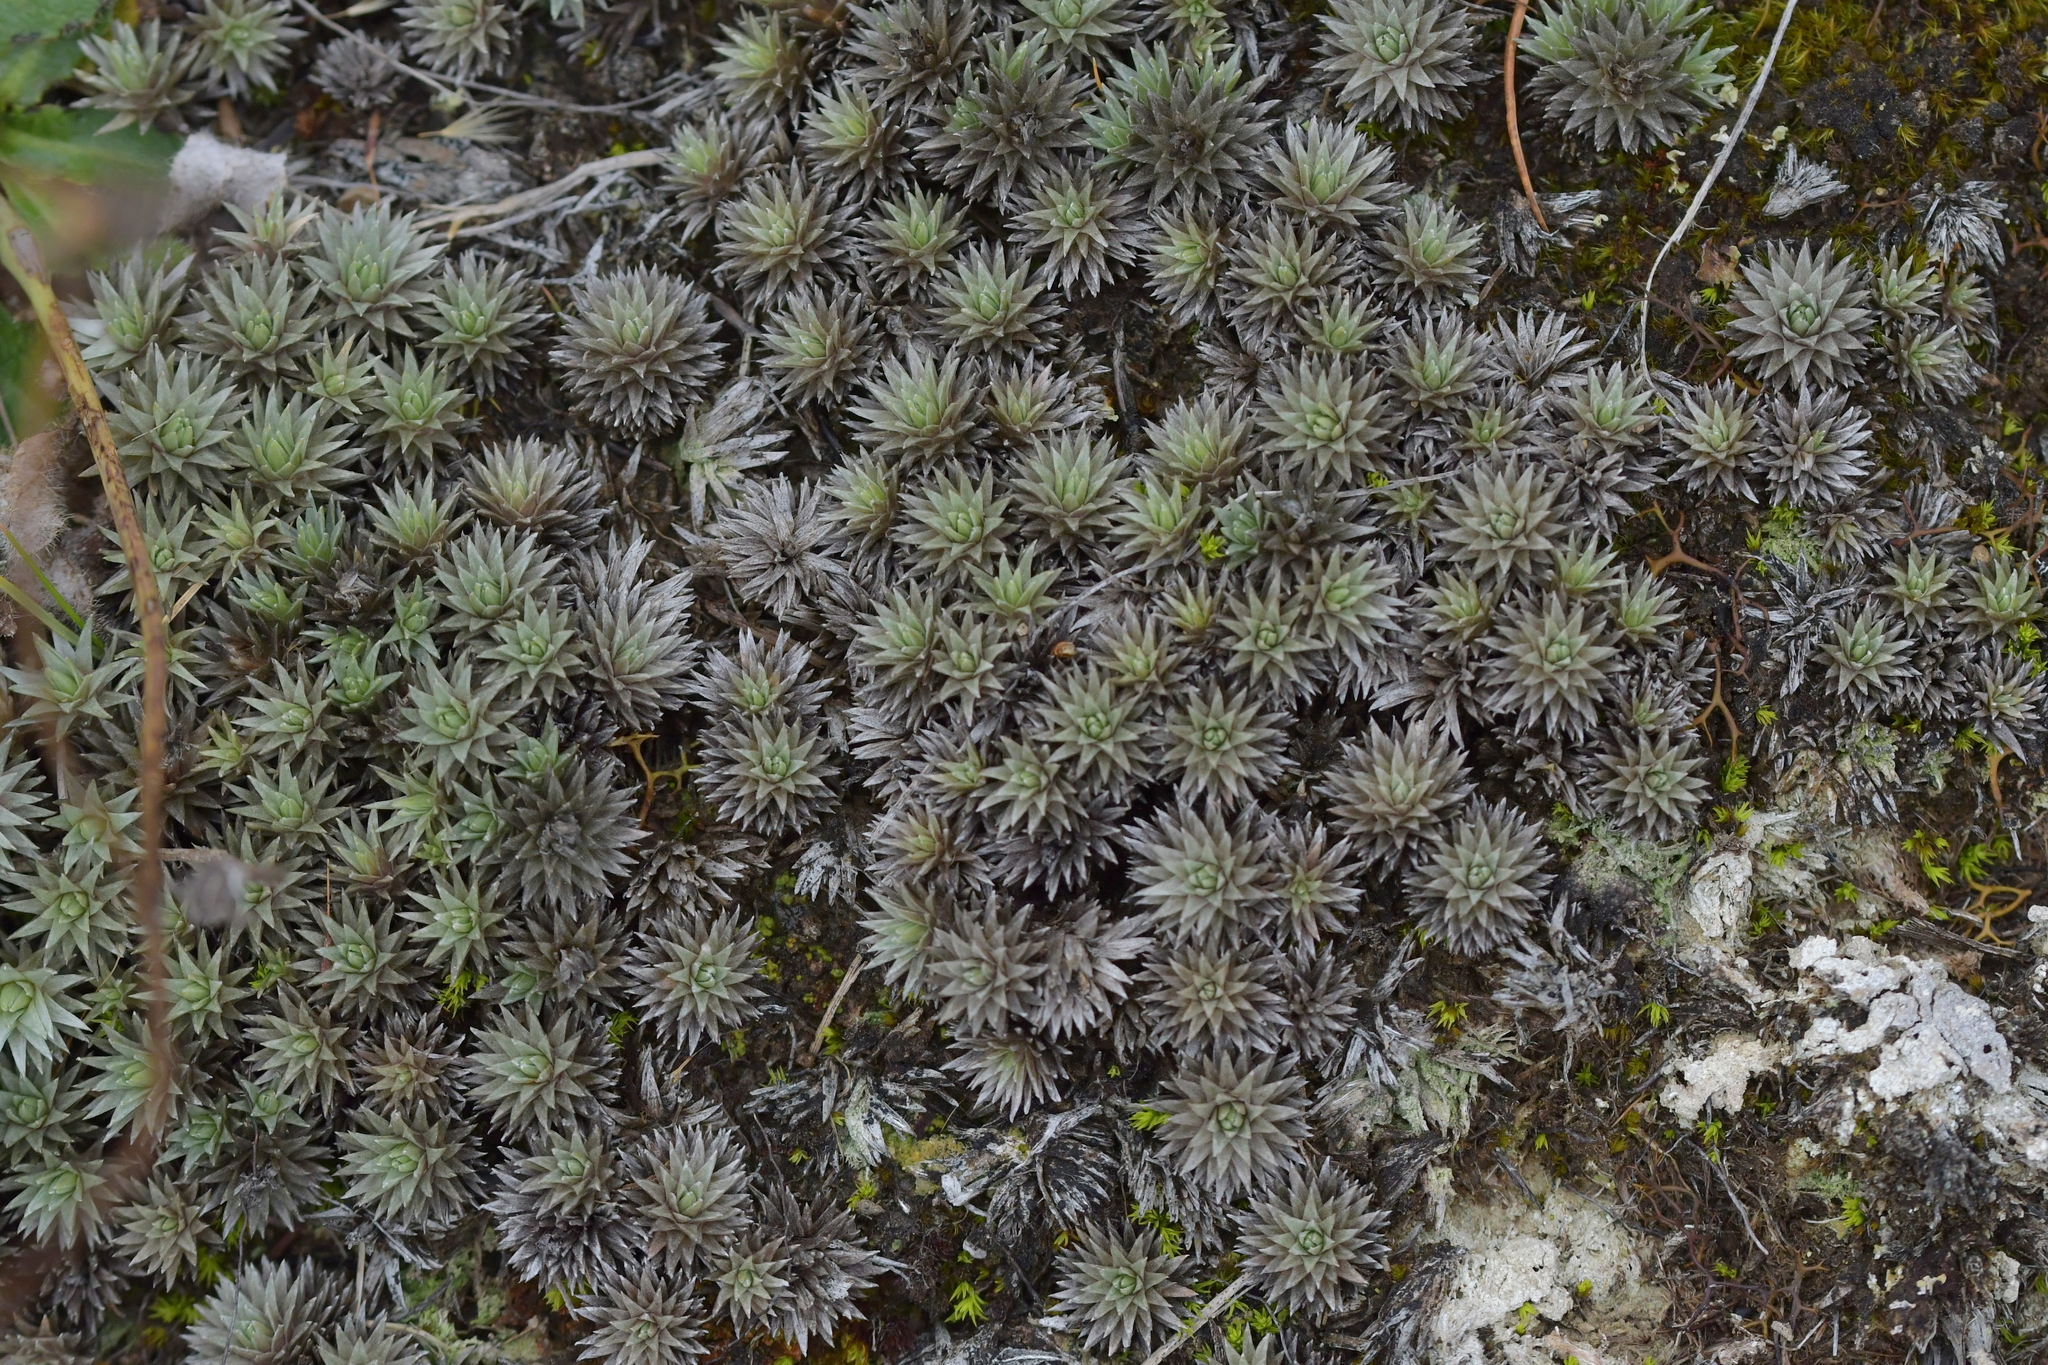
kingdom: Plantae
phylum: Tracheophyta
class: Magnoliopsida
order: Asterales
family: Asteraceae
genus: Raoulia
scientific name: Raoulia grandiflora
